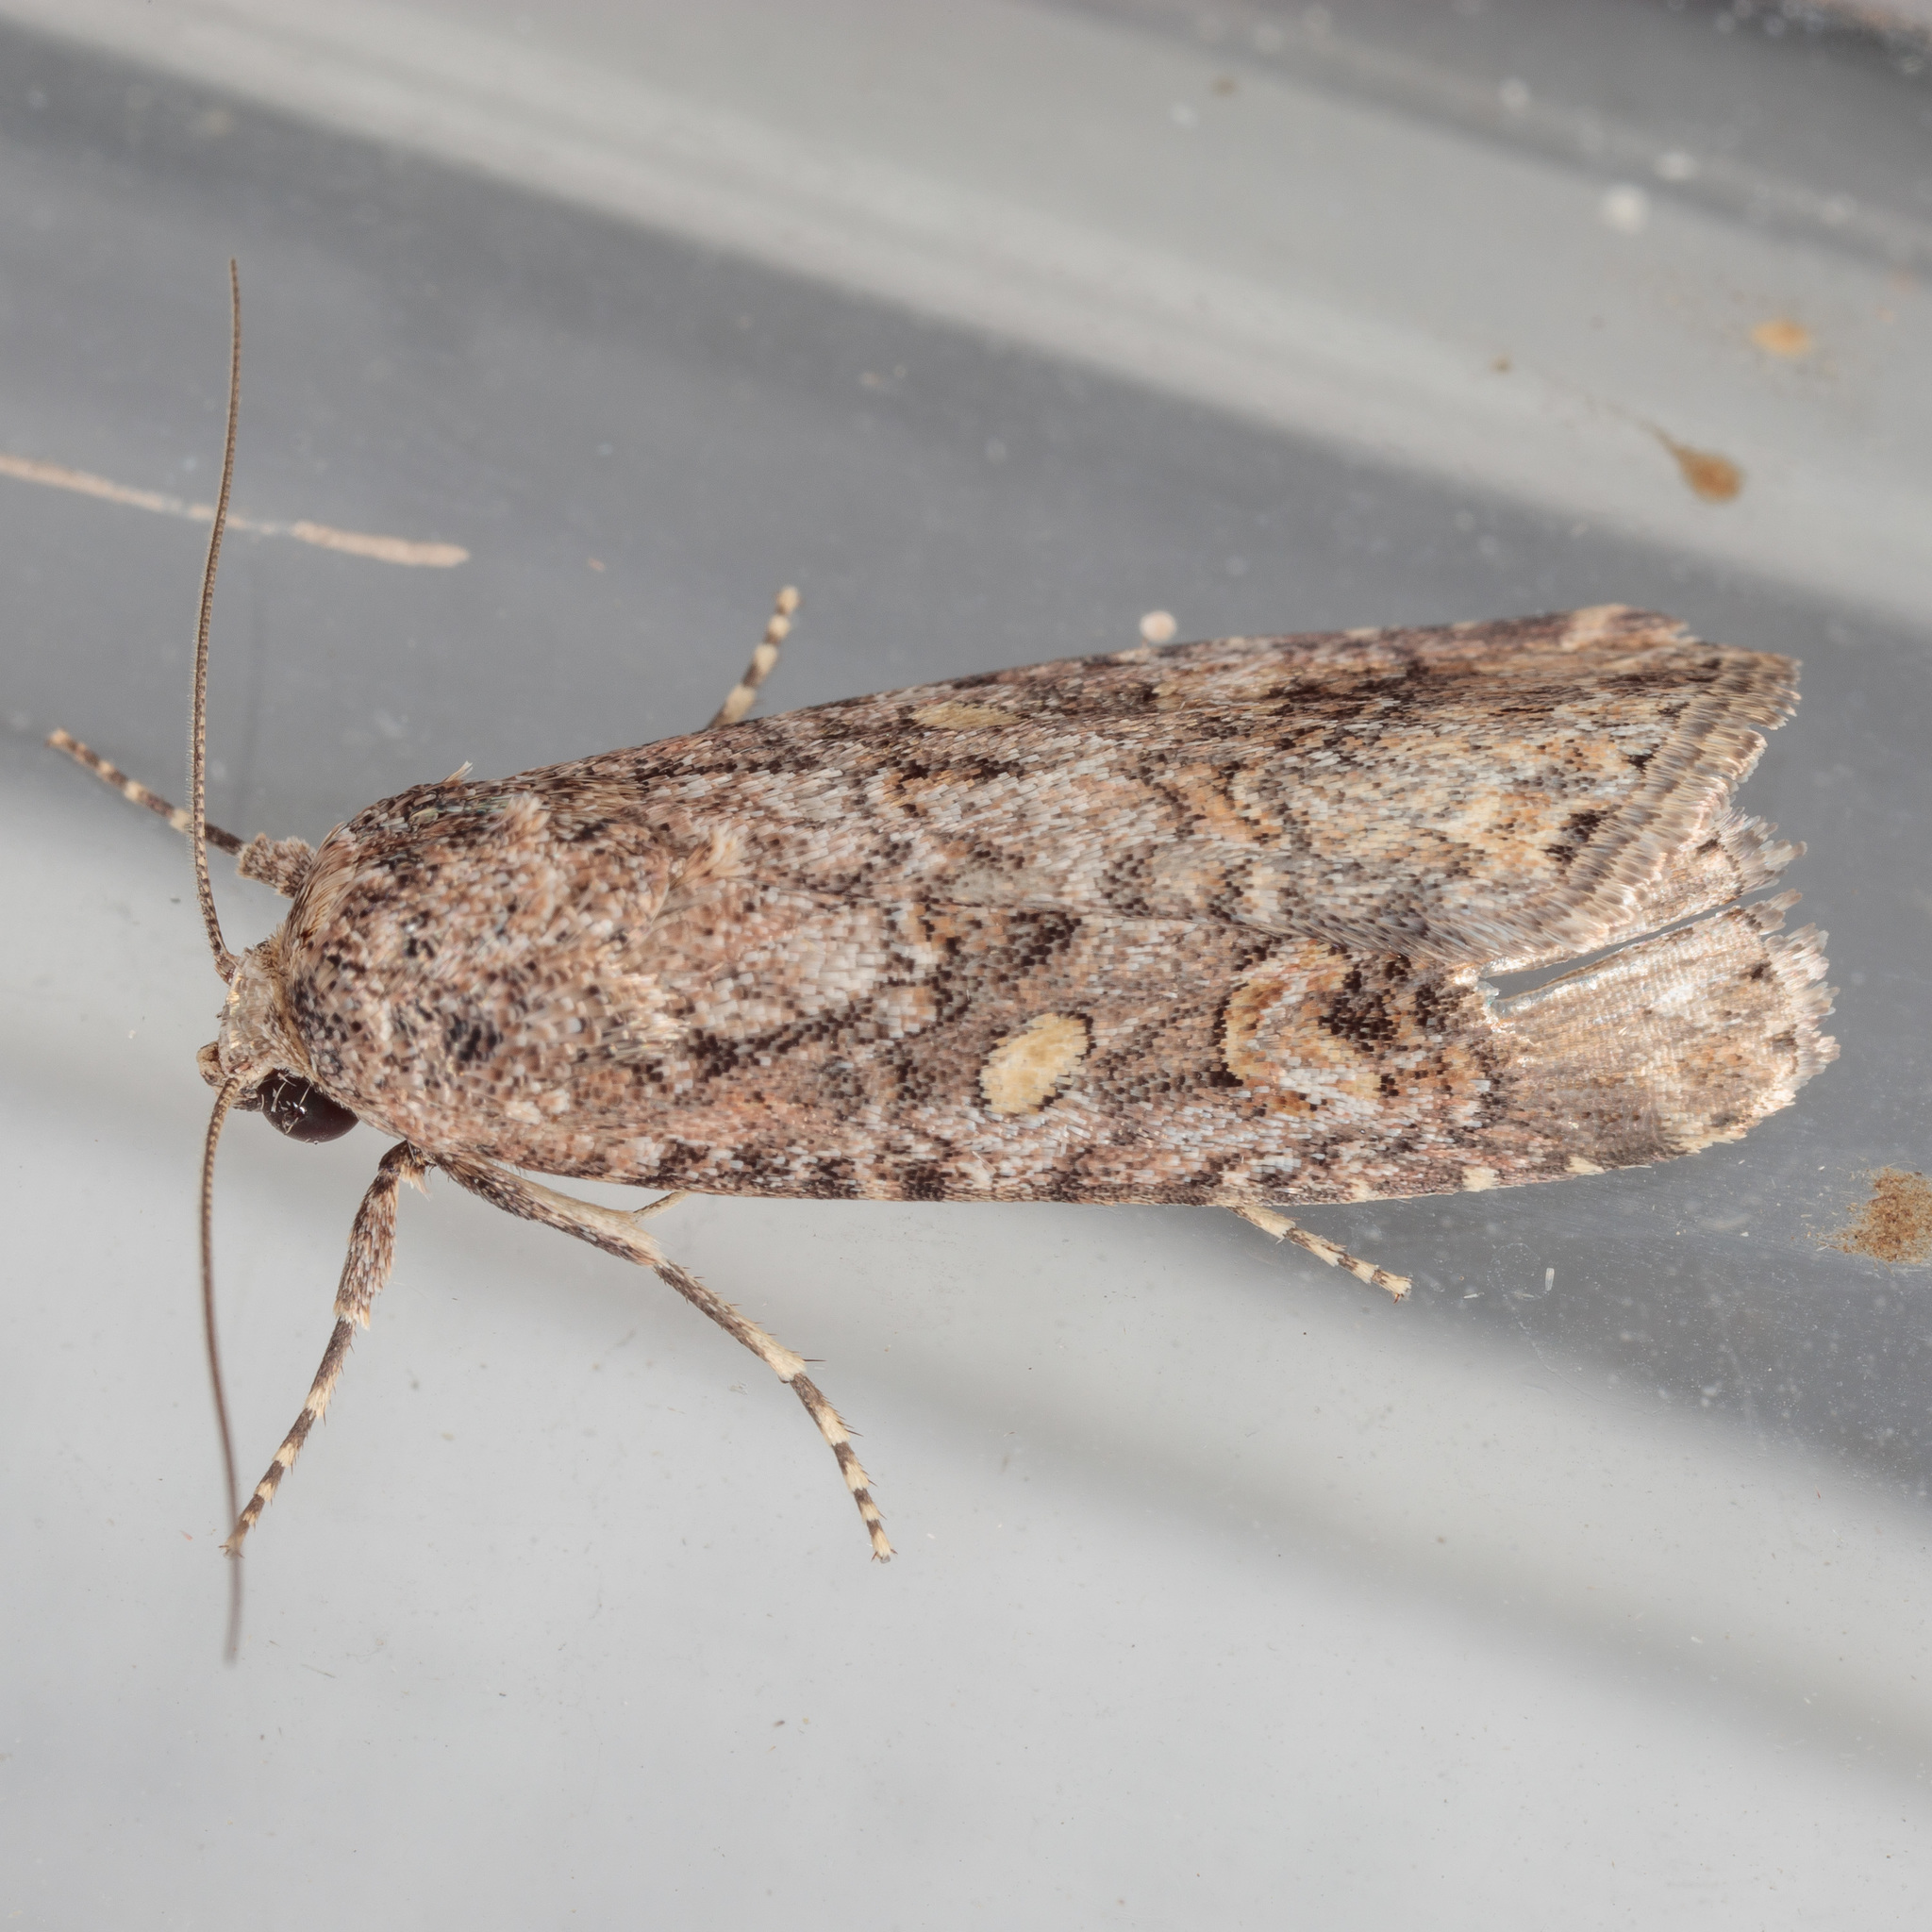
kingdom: Animalia
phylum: Arthropoda
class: Insecta
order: Lepidoptera
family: Noctuidae
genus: Spodoptera
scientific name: Spodoptera exigua
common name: Beet armyworm
